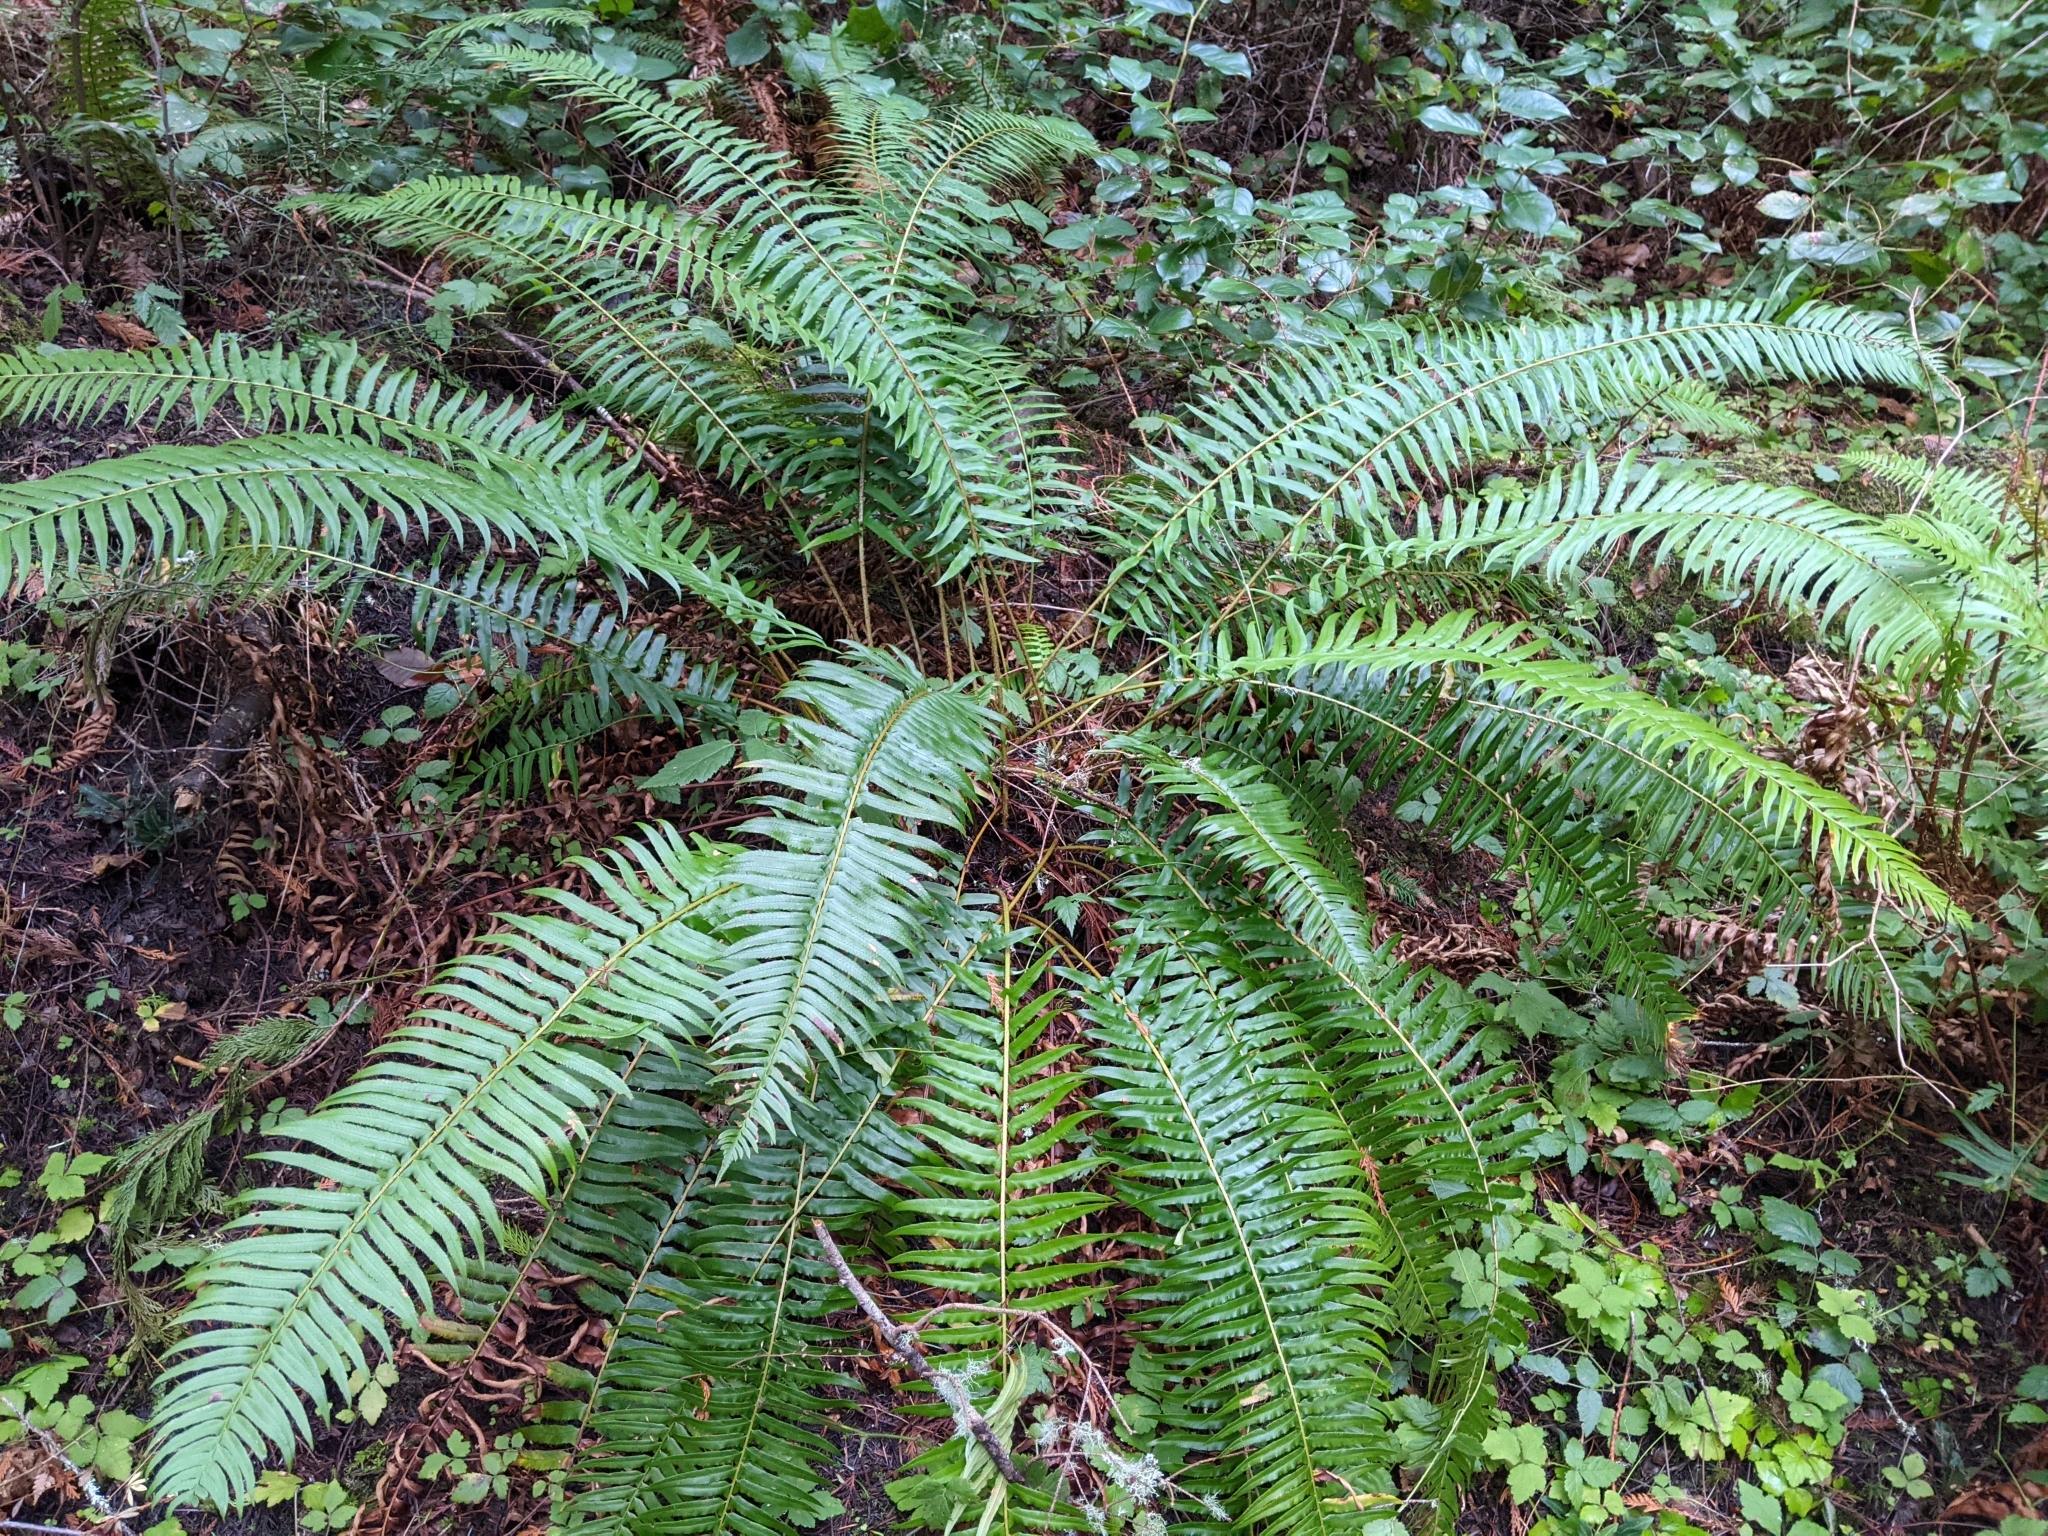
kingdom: Plantae
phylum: Tracheophyta
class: Polypodiopsida
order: Polypodiales
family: Dryopteridaceae
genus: Polystichum
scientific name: Polystichum munitum
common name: Western sword-fern
